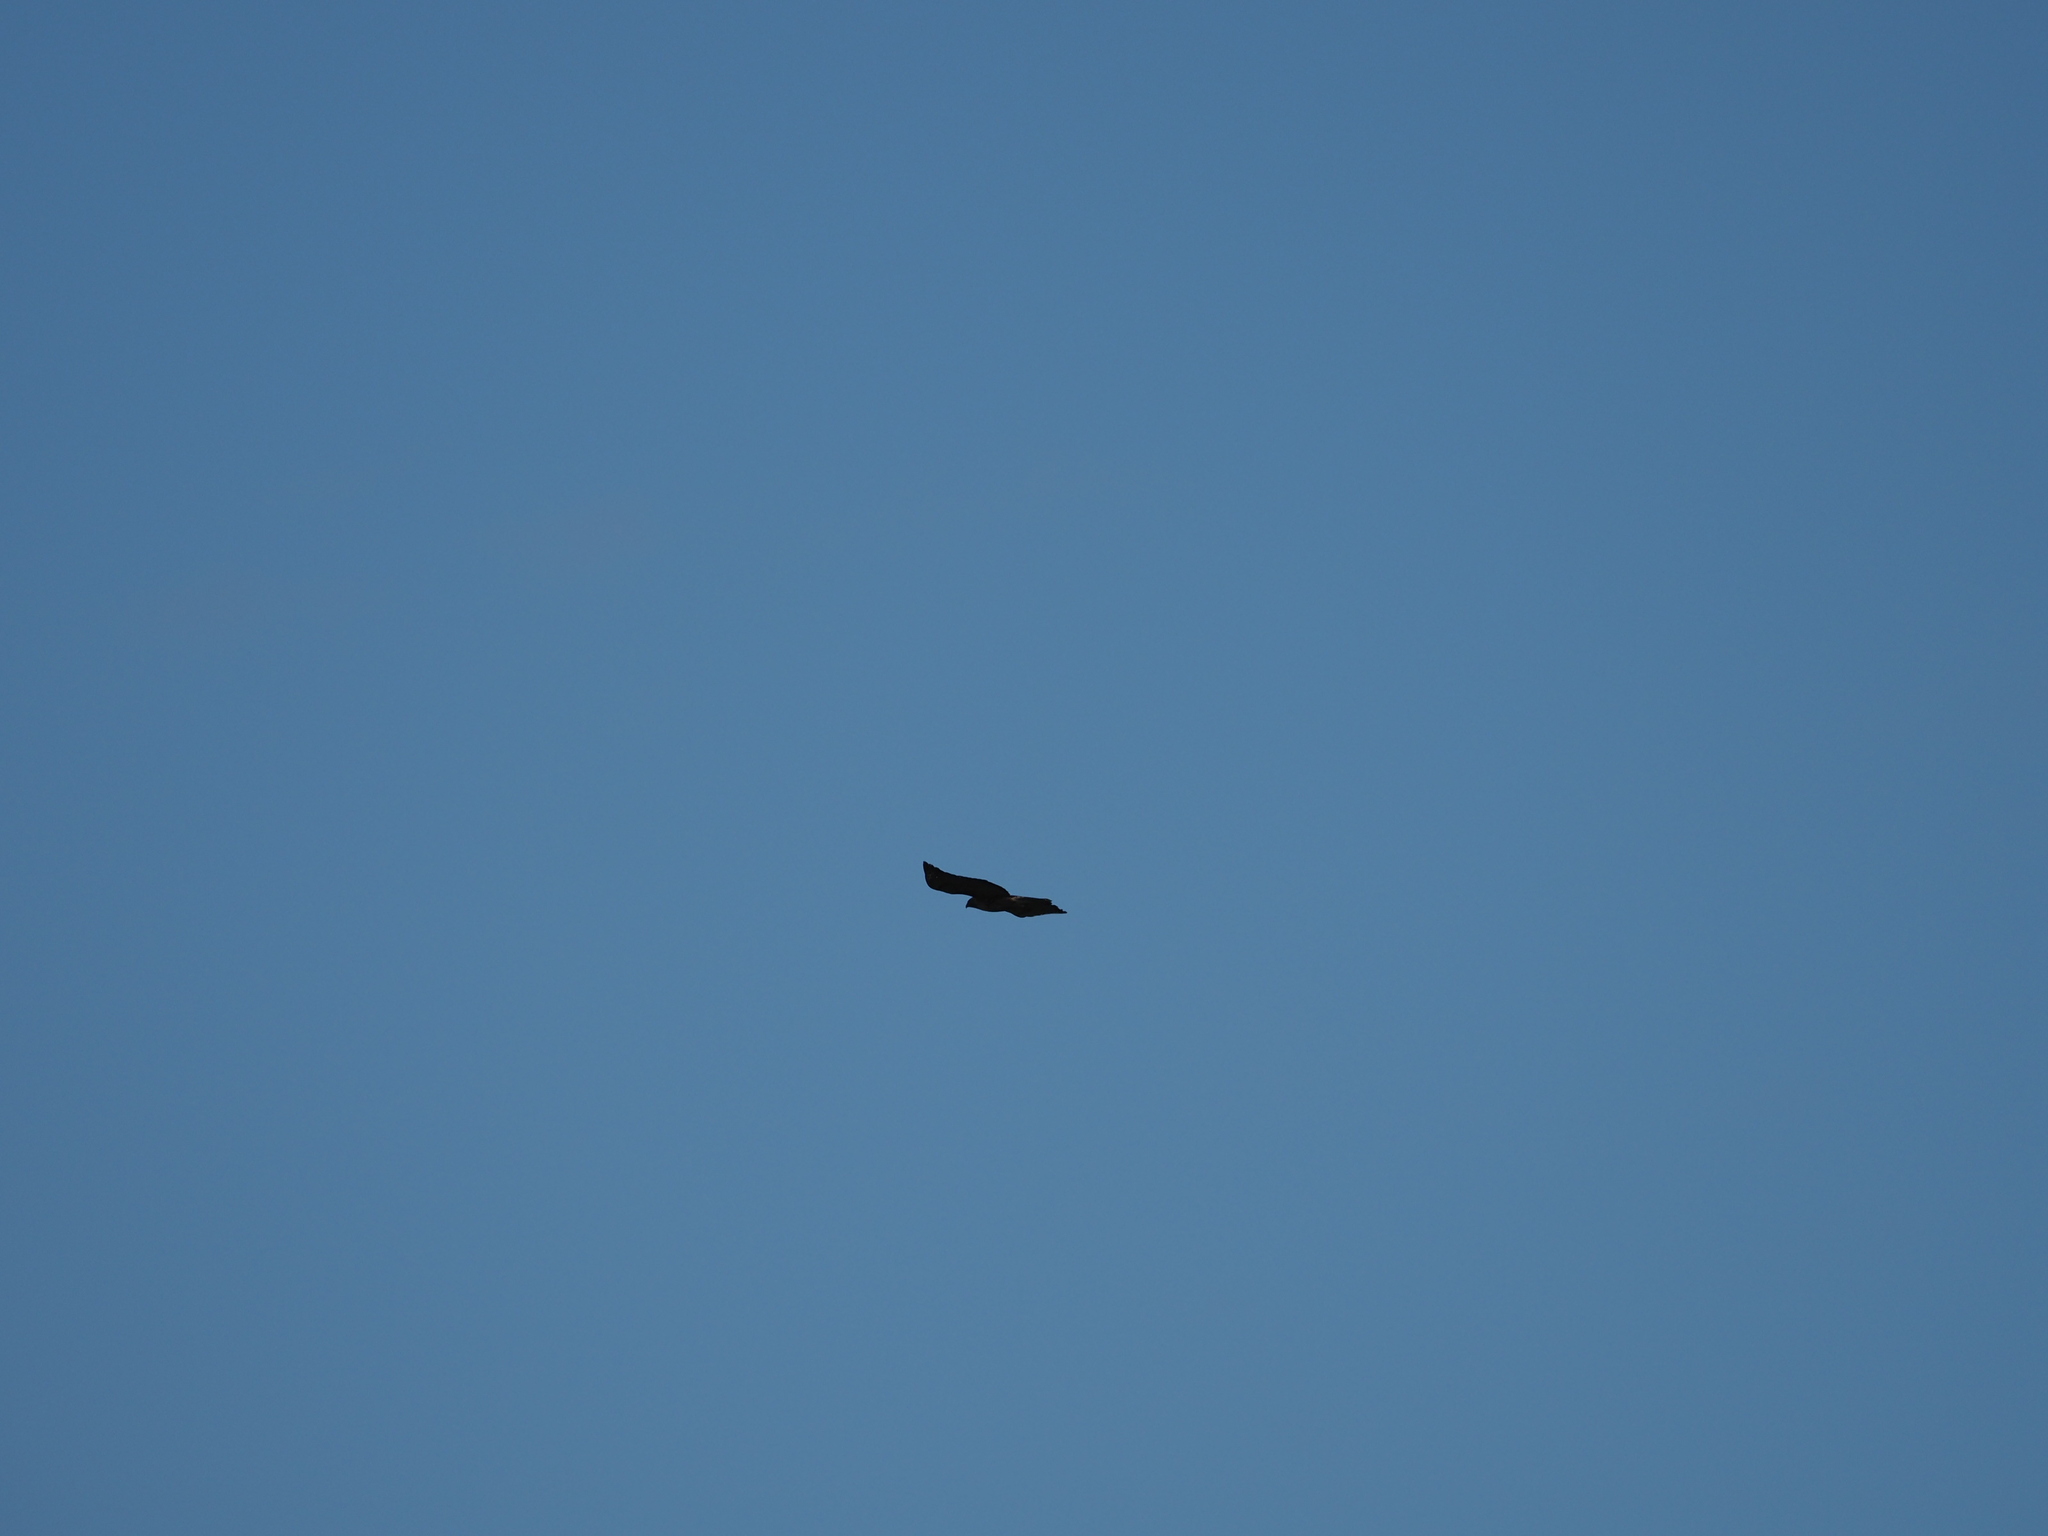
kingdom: Animalia
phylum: Chordata
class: Aves
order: Accipitriformes
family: Accipitridae
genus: Buteo
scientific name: Buteo jamaicensis
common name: Red-tailed hawk
